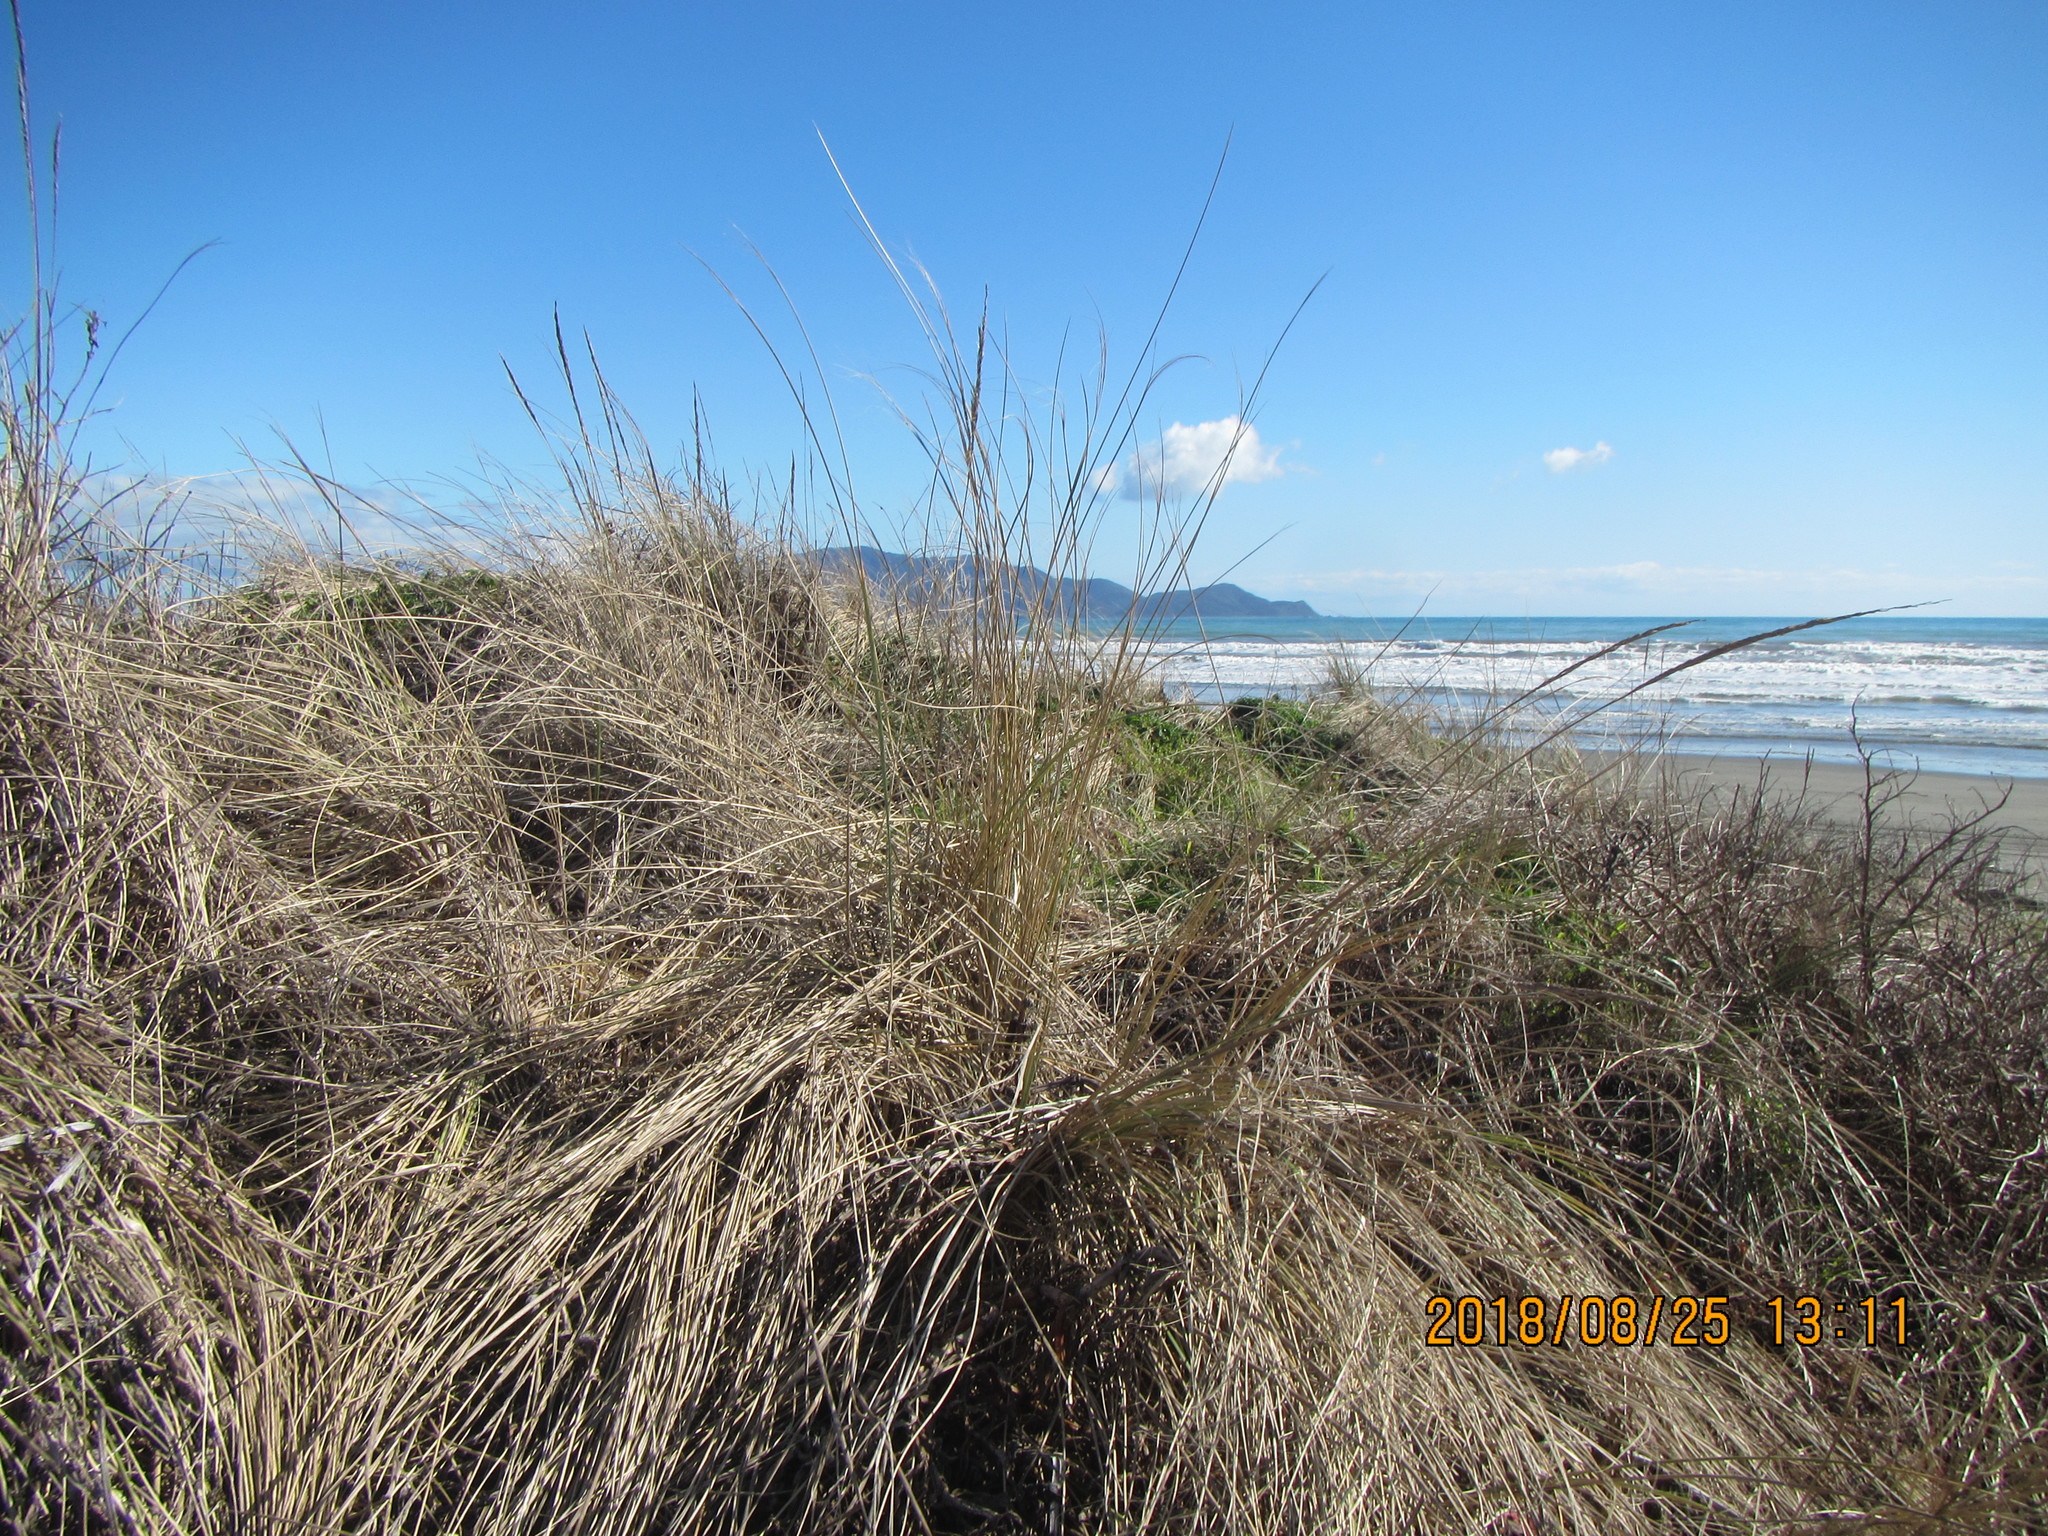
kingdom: Plantae
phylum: Tracheophyta
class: Liliopsida
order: Poales
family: Poaceae
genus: Calamagrostis
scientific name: Calamagrostis arenaria
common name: European beachgrass
